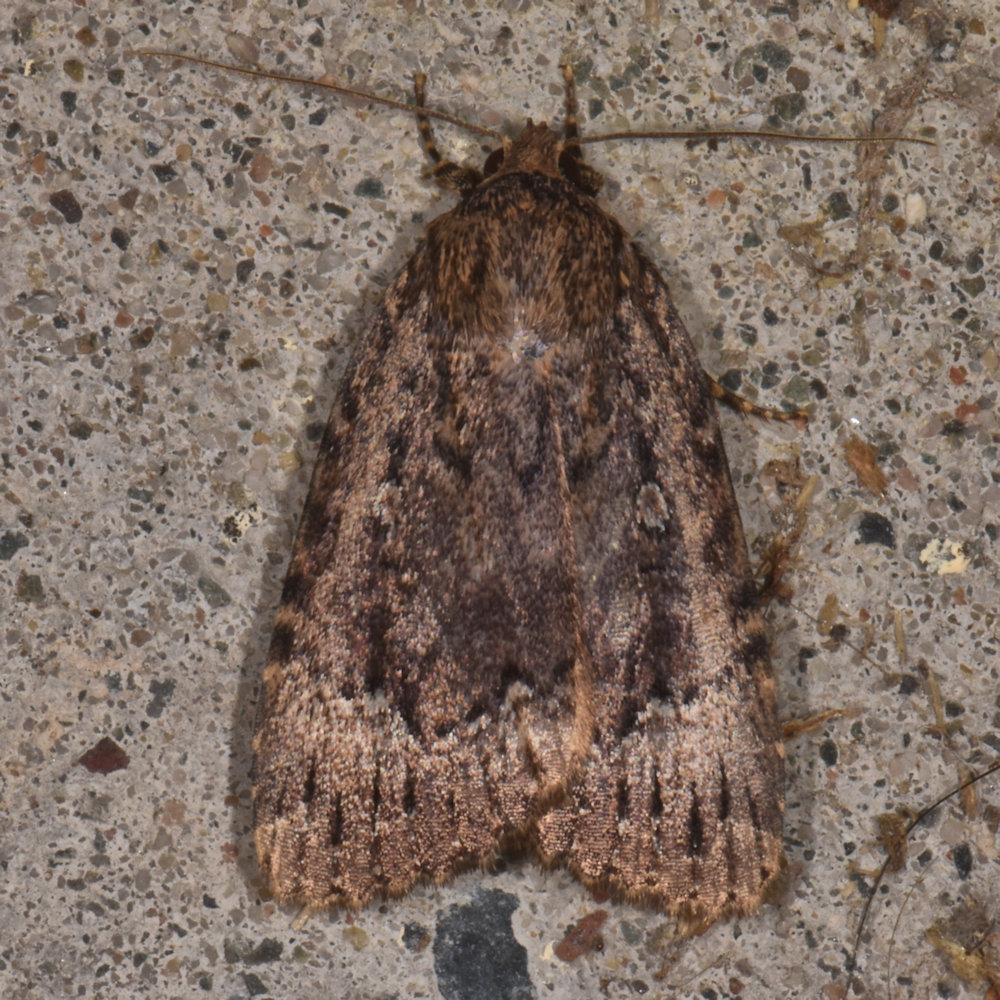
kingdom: Animalia
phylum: Arthropoda
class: Insecta
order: Lepidoptera
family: Noctuidae
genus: Amphipyra
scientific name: Amphipyra pyramidoides
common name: American copper underwing
